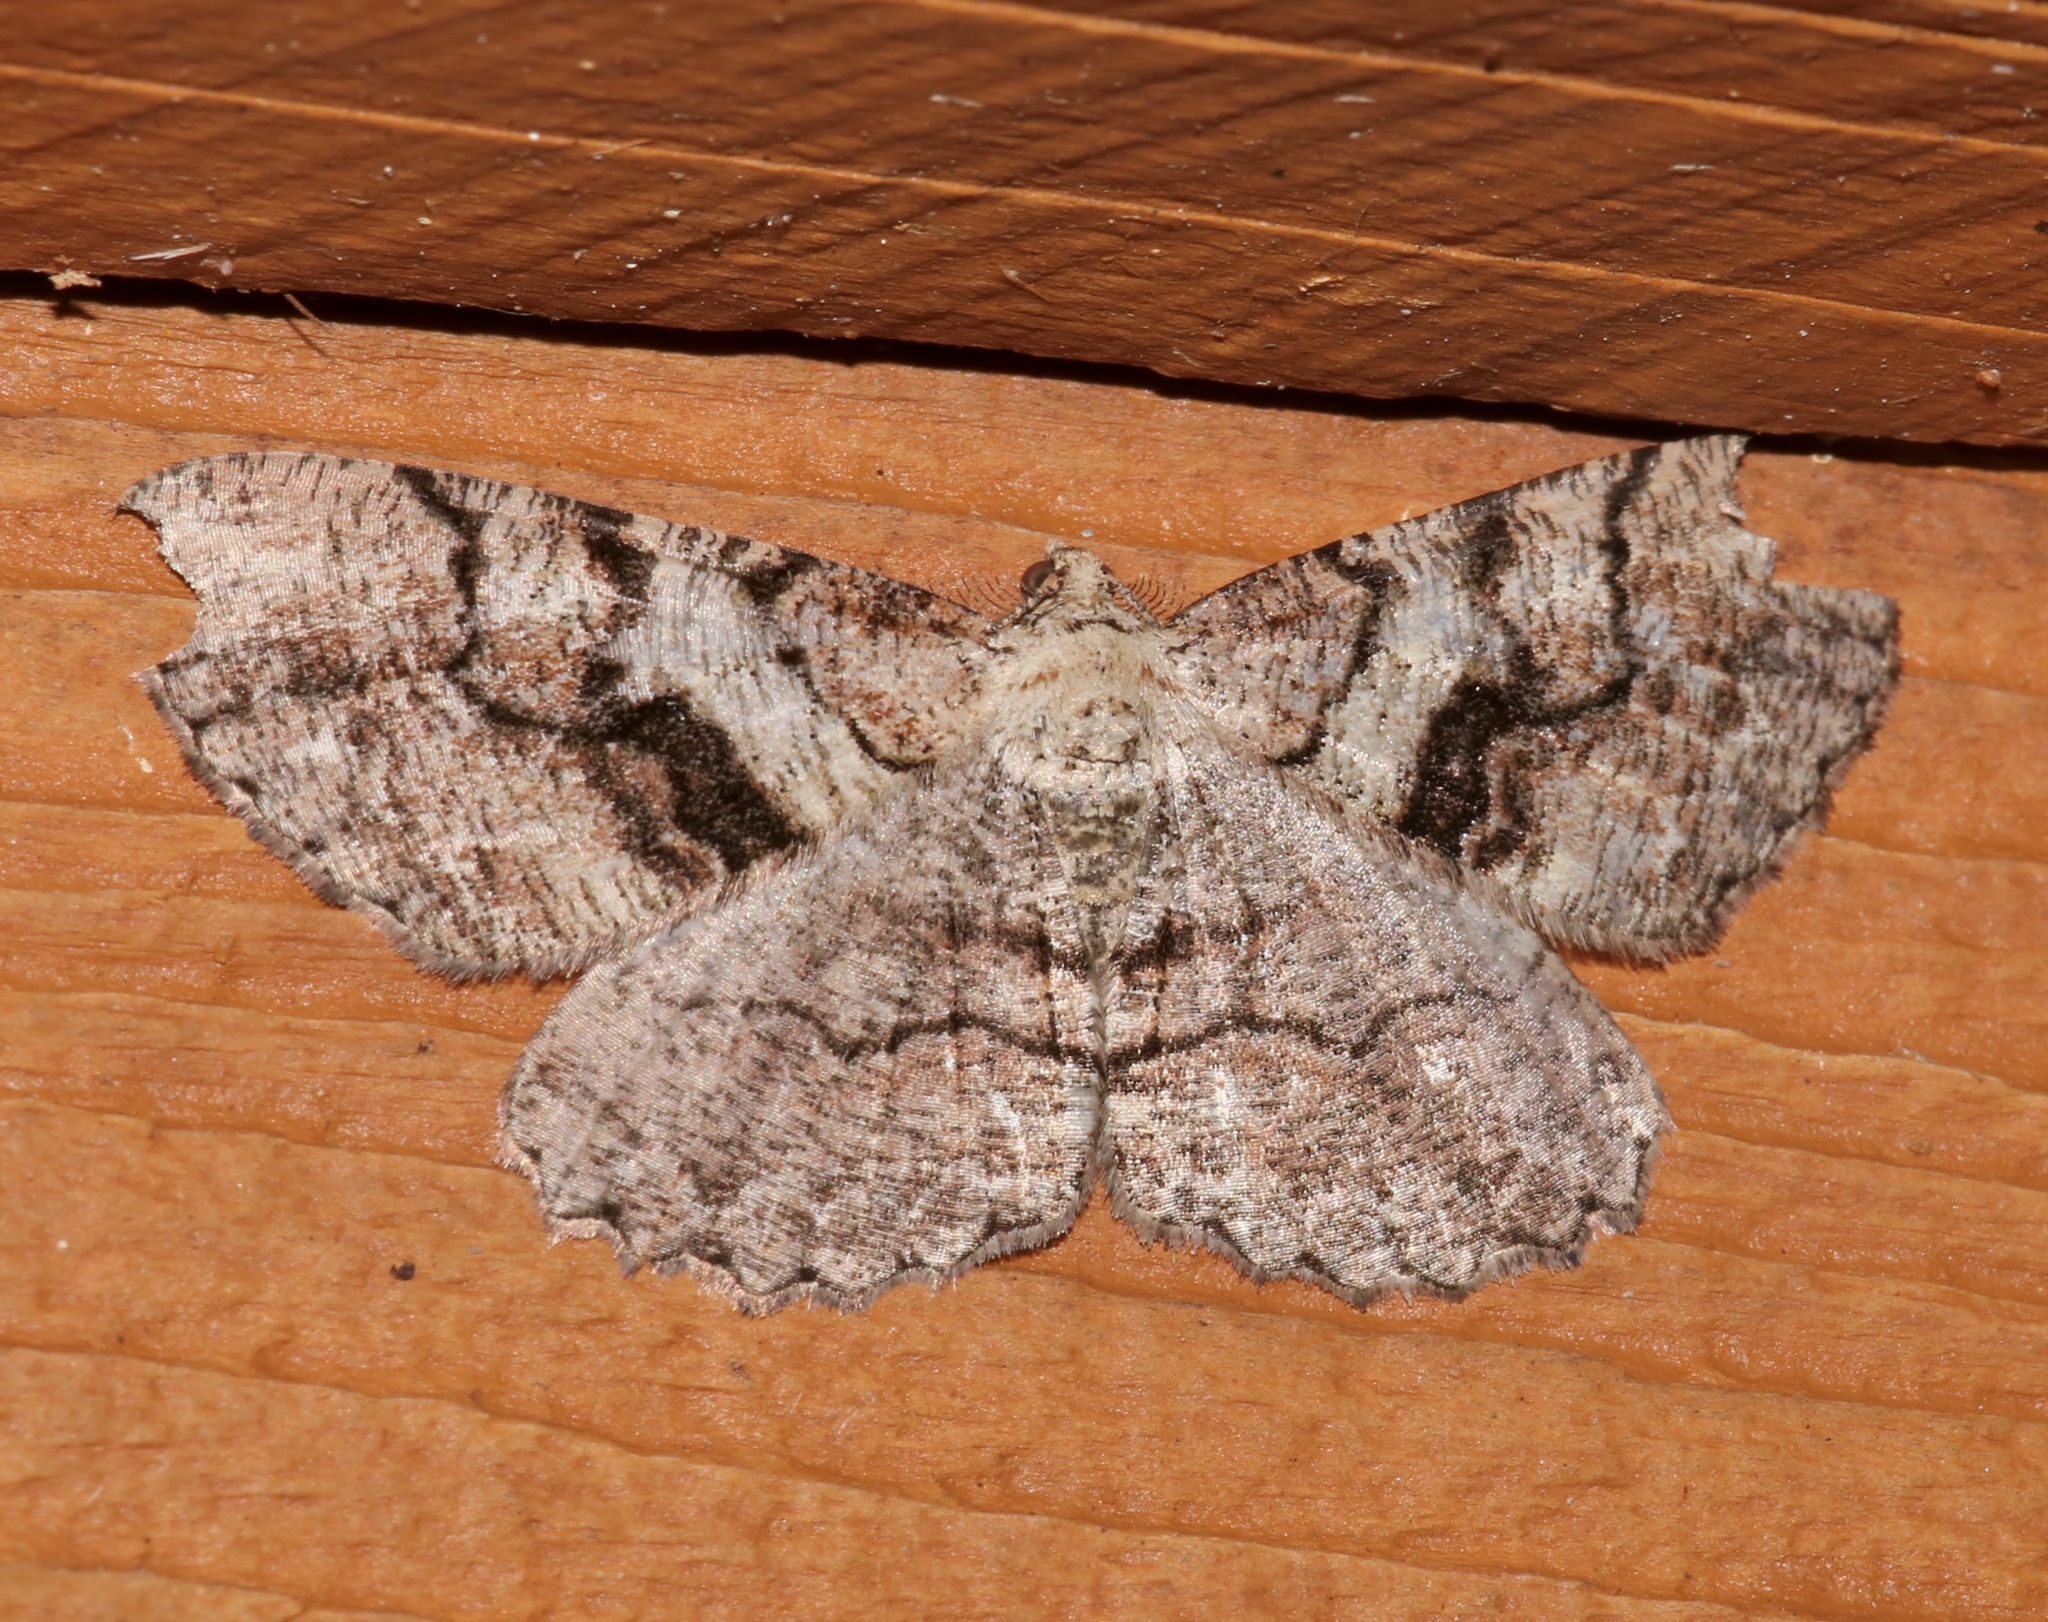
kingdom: Animalia
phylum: Arthropoda
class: Insecta
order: Lepidoptera
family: Geometridae
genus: Cymatophora
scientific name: Cymatophora approximaria
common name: Giant gray moth
